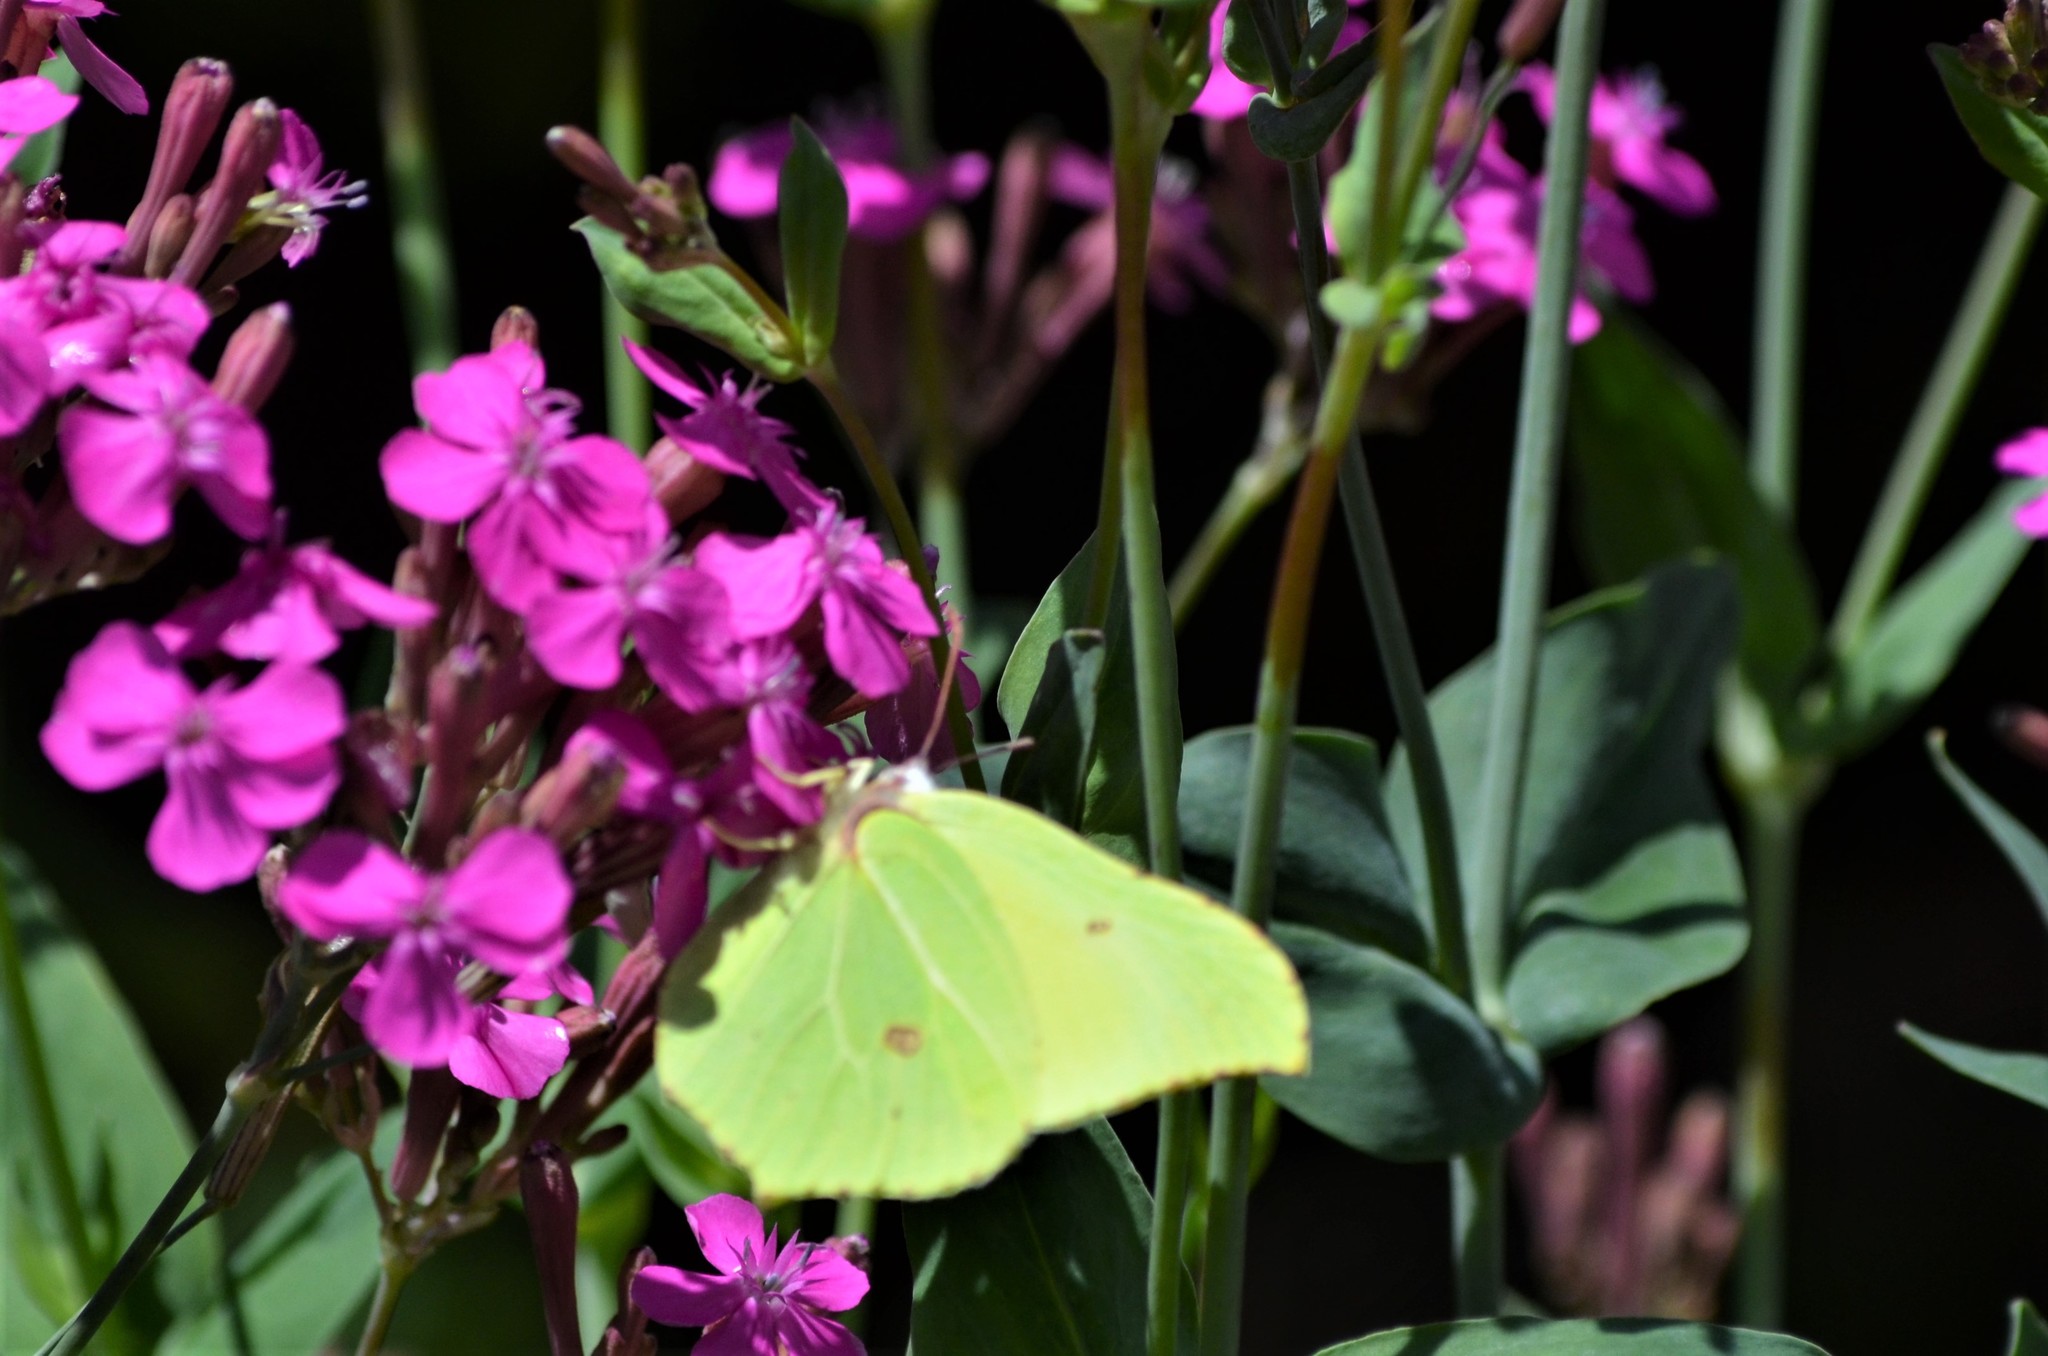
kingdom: Animalia
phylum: Arthropoda
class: Insecta
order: Lepidoptera
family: Pieridae
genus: Gonepteryx
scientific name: Gonepteryx rhamni
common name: Brimstone
